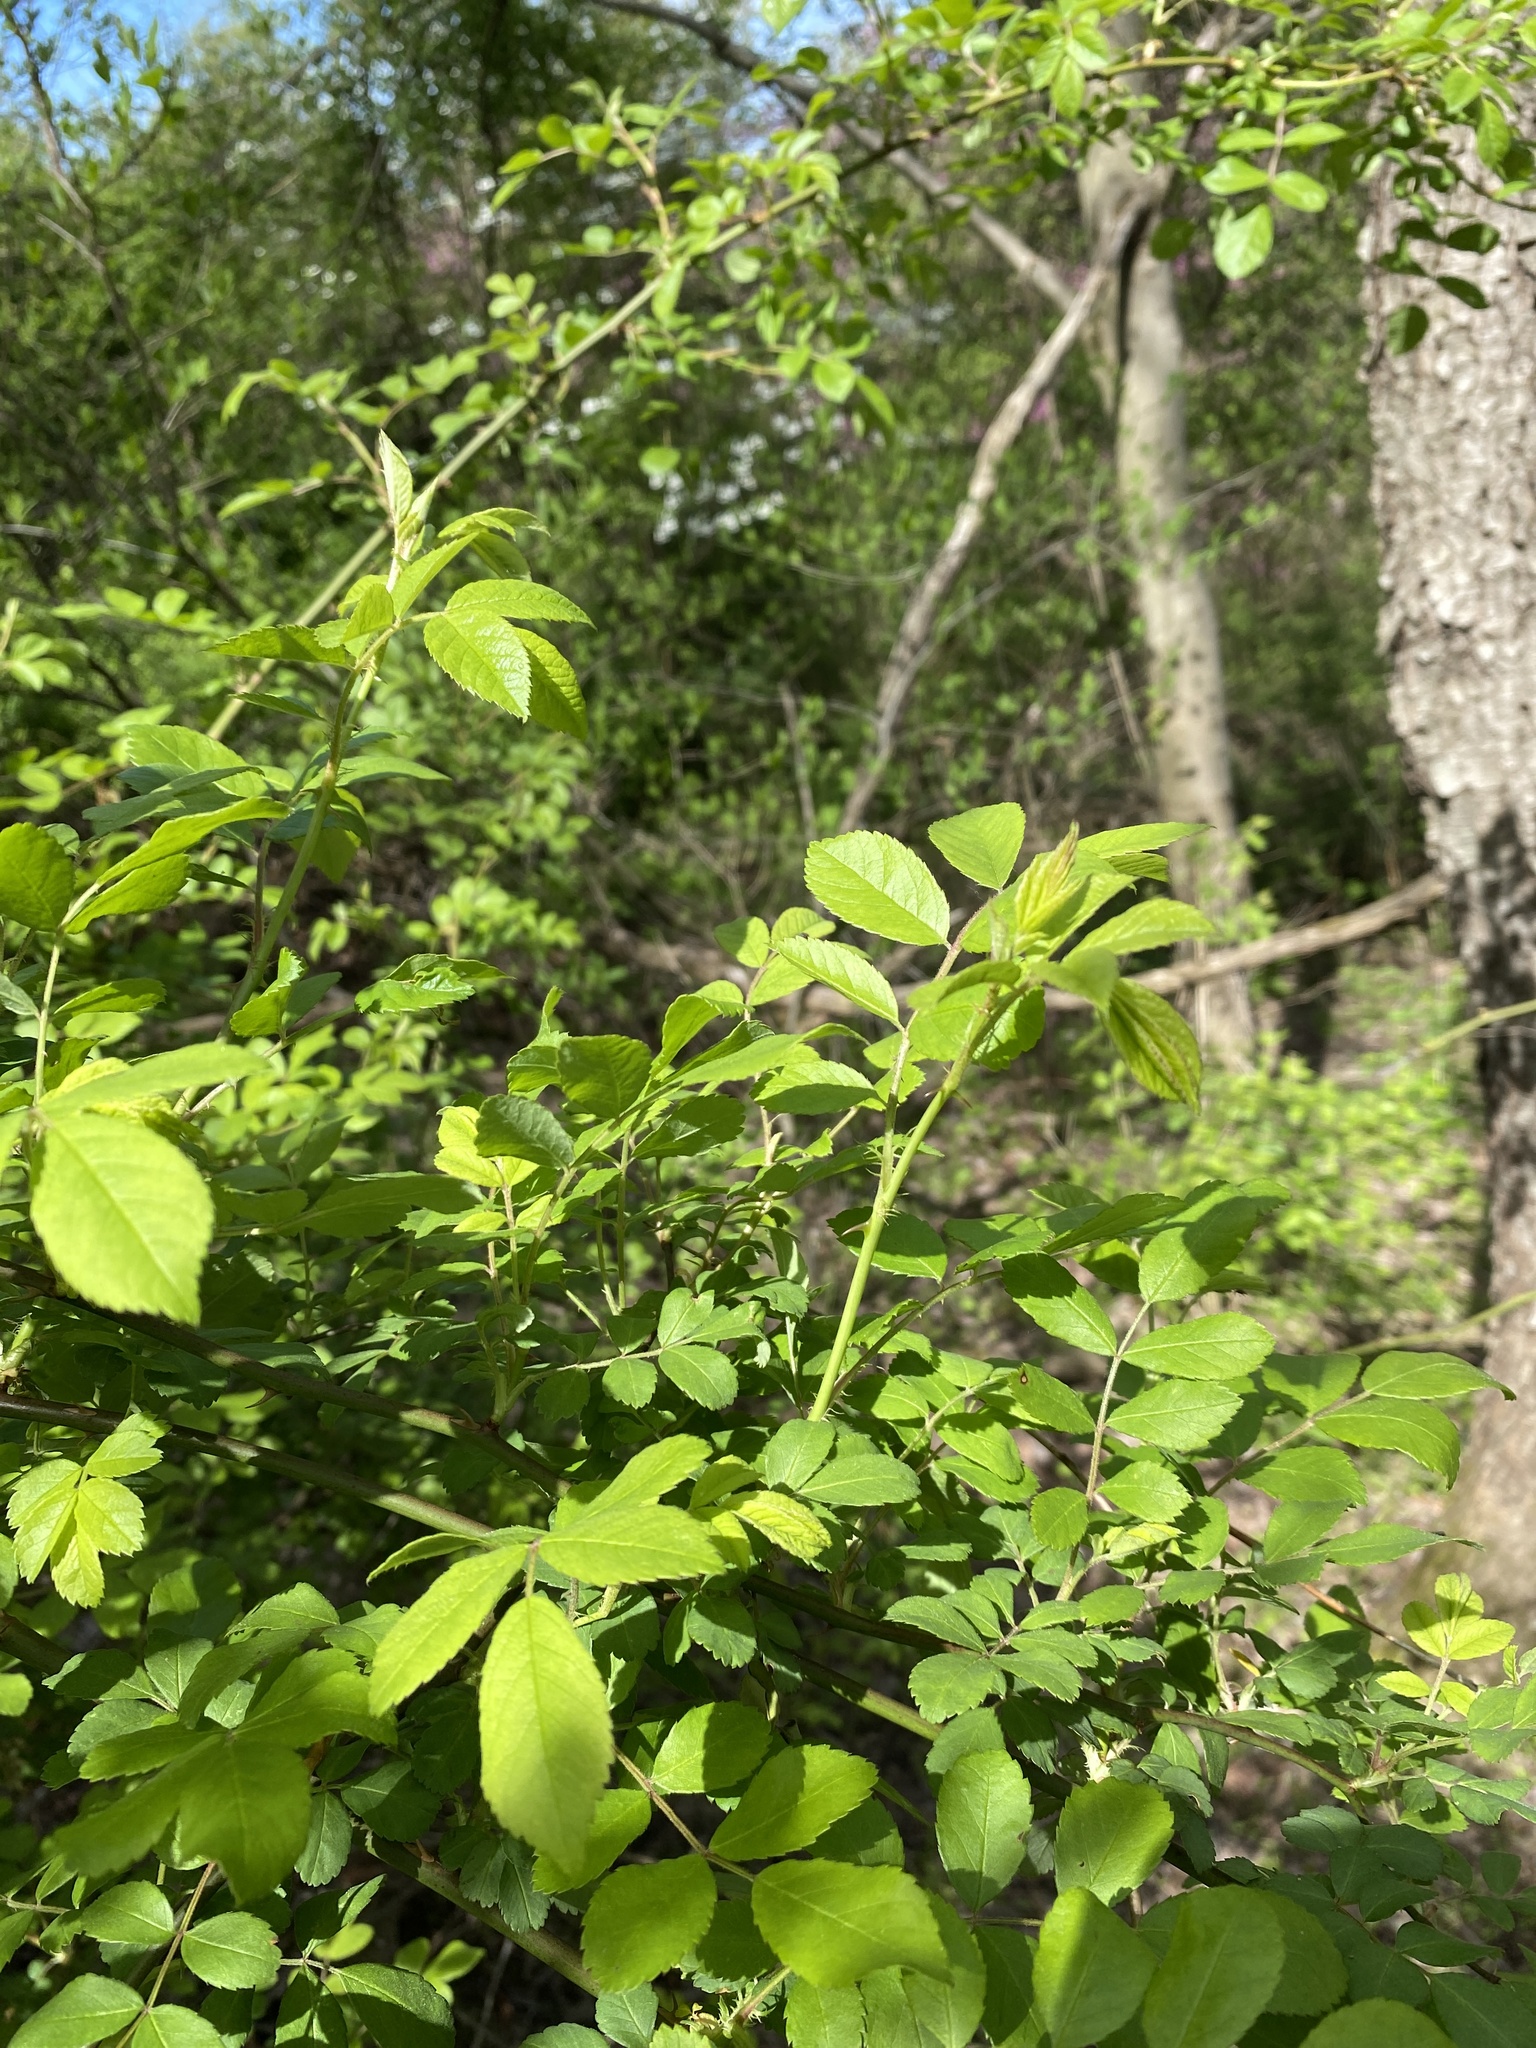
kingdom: Plantae
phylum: Tracheophyta
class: Magnoliopsida
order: Rosales
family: Rosaceae
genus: Rosa
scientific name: Rosa multiflora
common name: Multiflora rose
